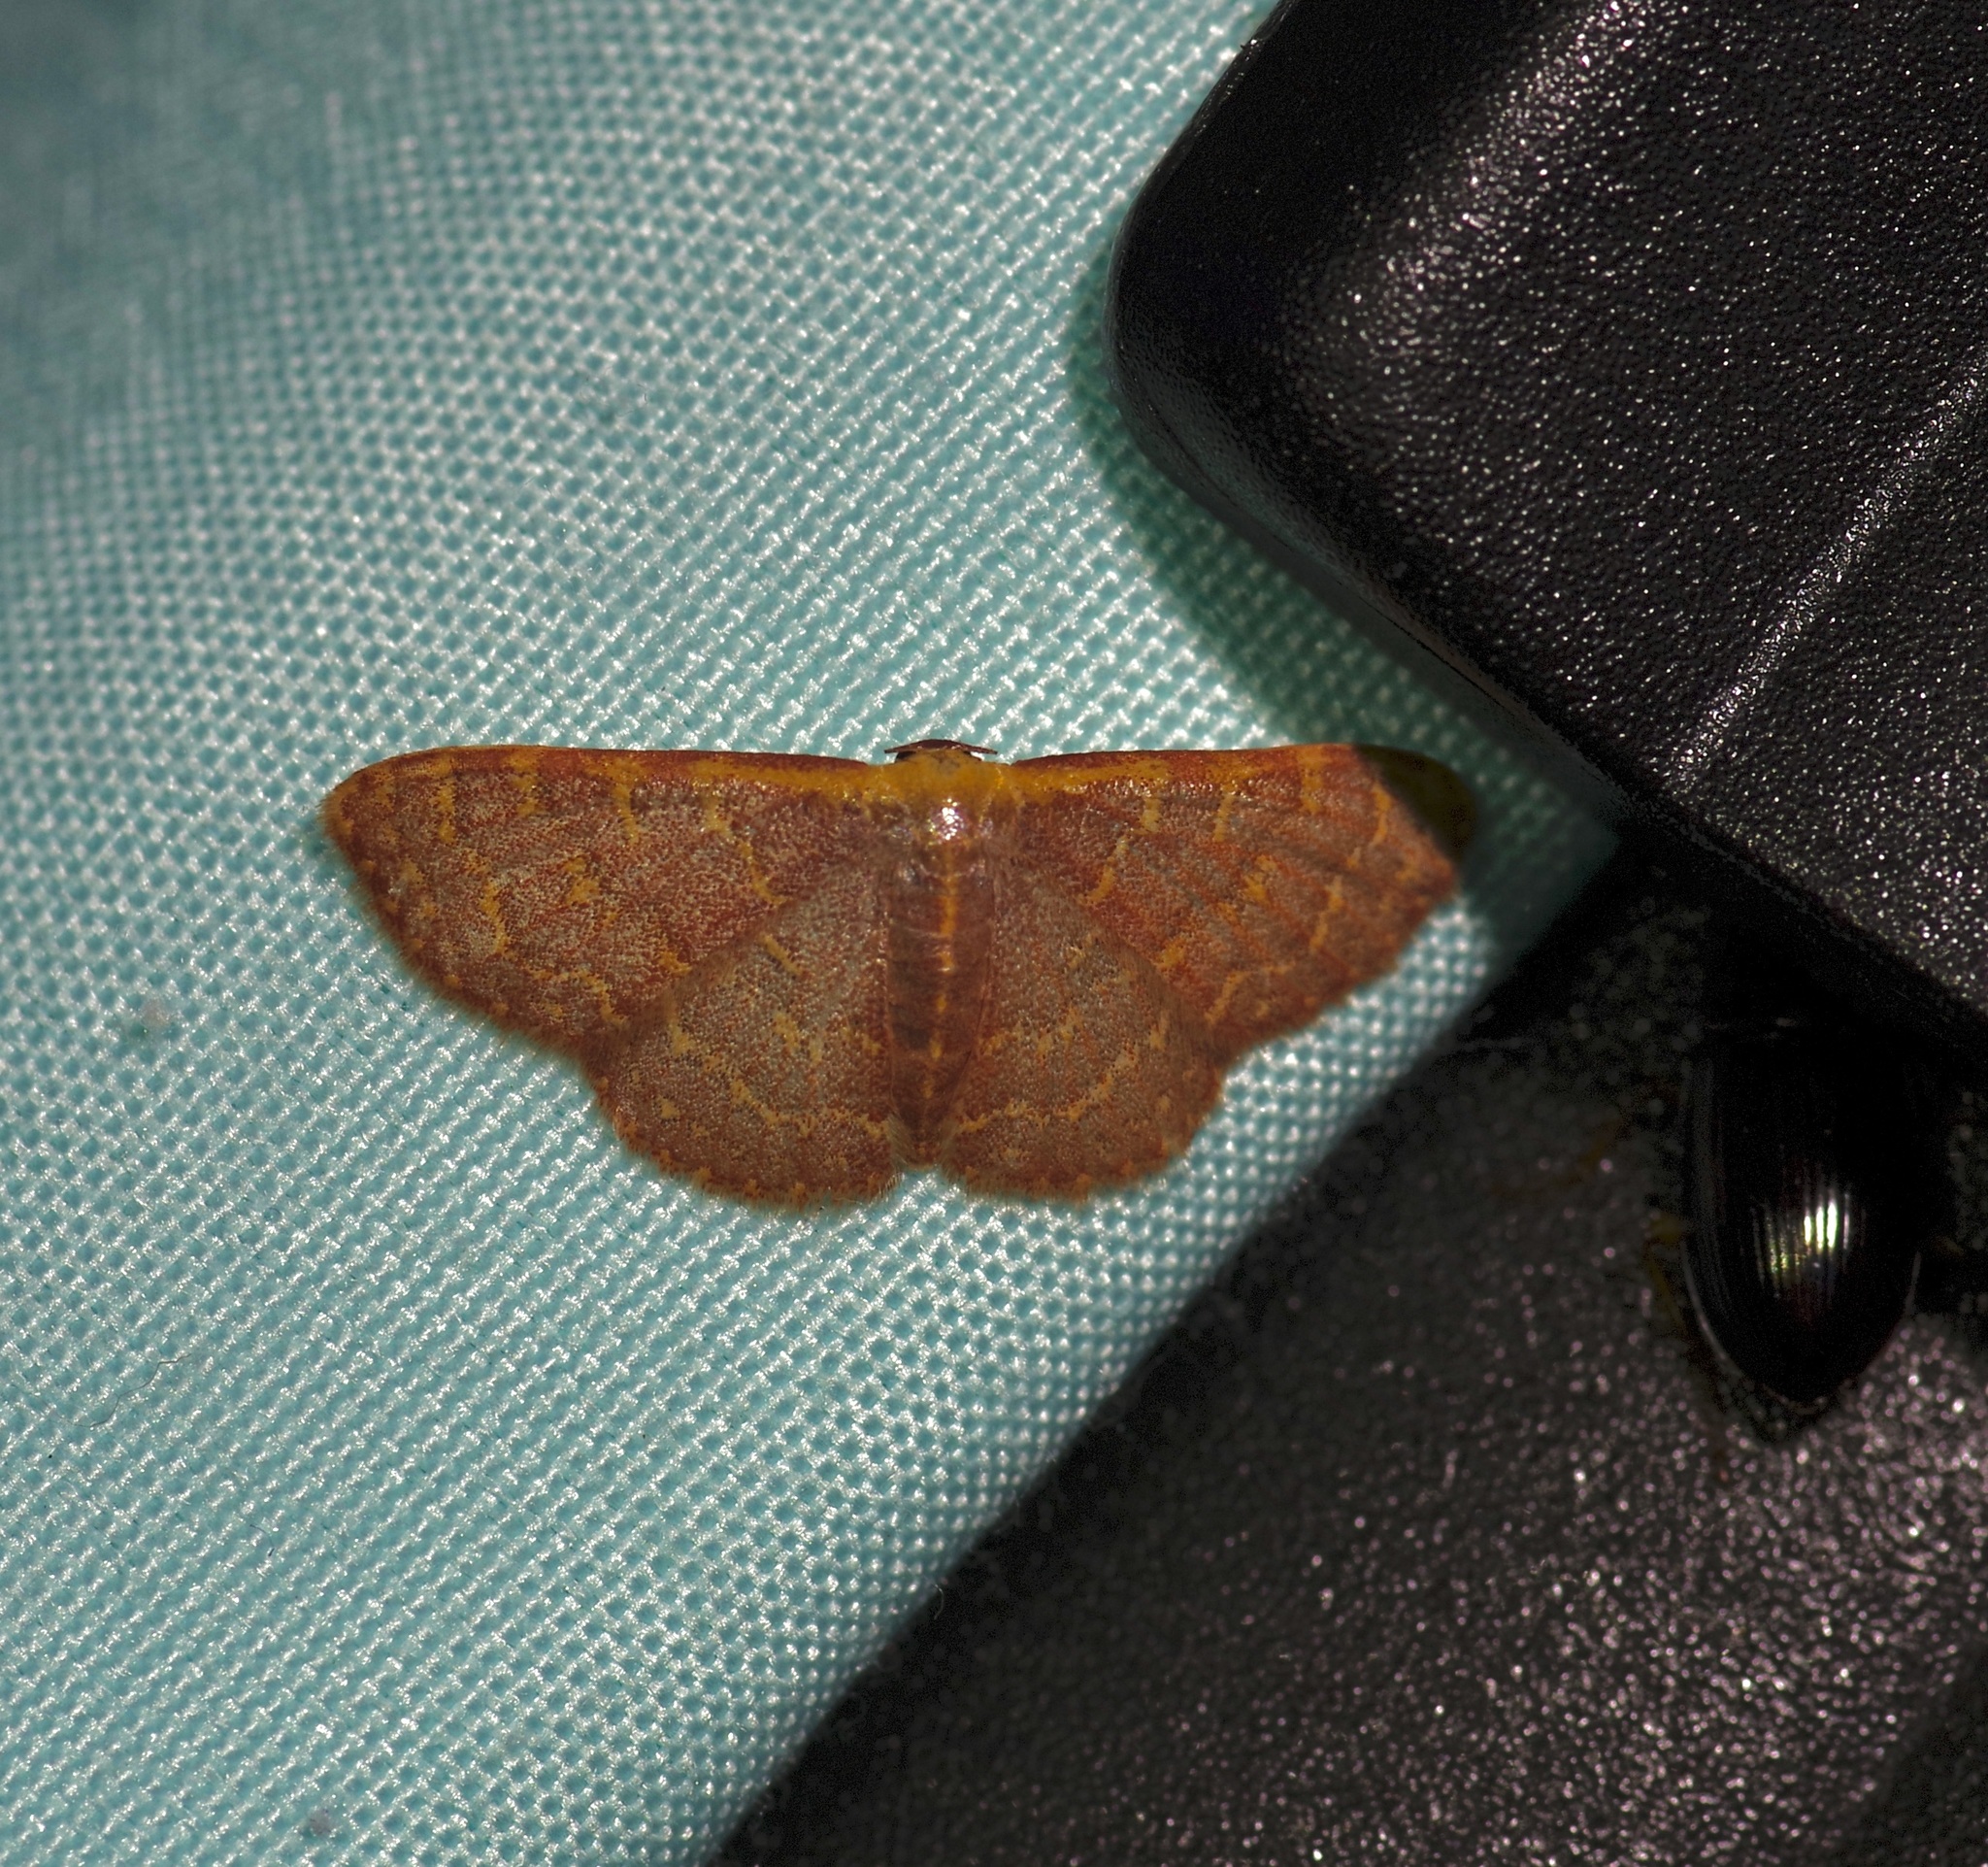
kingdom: Animalia
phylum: Arthropoda
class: Insecta
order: Lepidoptera
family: Geometridae
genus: Leptostales
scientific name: Leptostales pannaria
